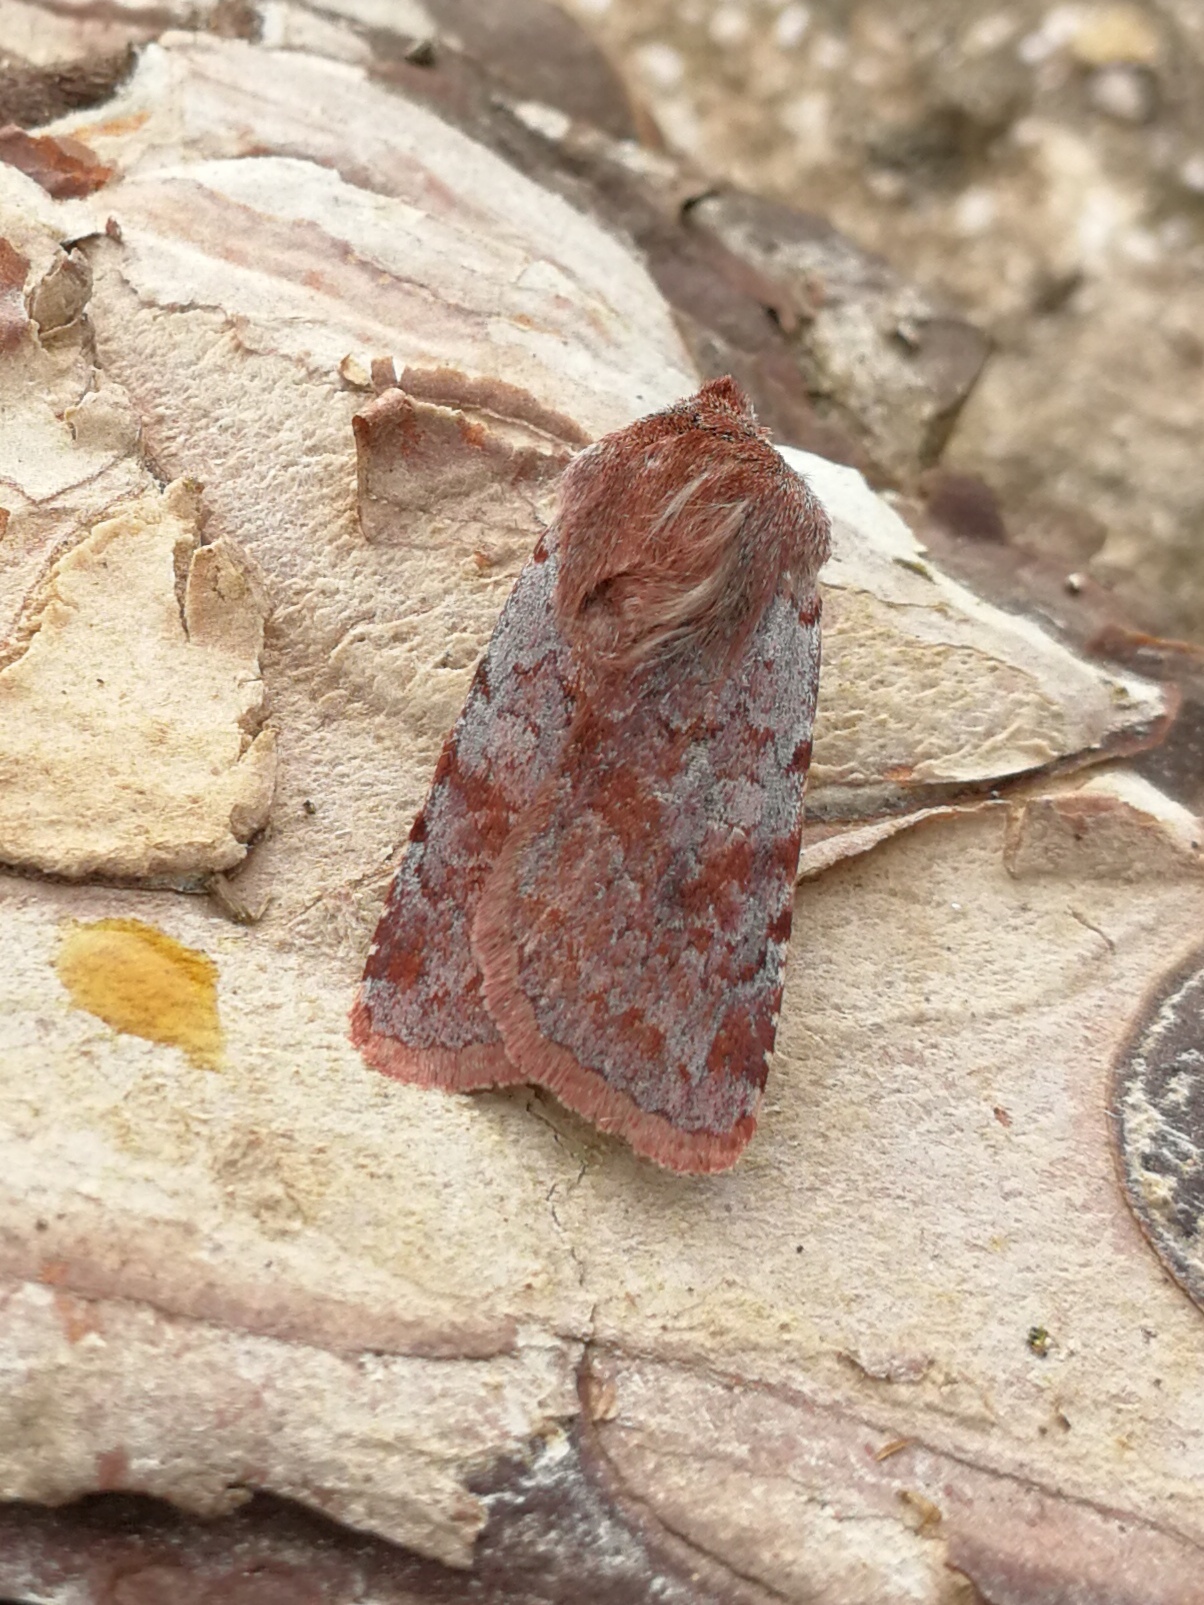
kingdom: Animalia
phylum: Arthropoda
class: Insecta
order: Lepidoptera
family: Noctuidae
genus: Cerastis
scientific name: Cerastis rubricosa
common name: Red chestnut
